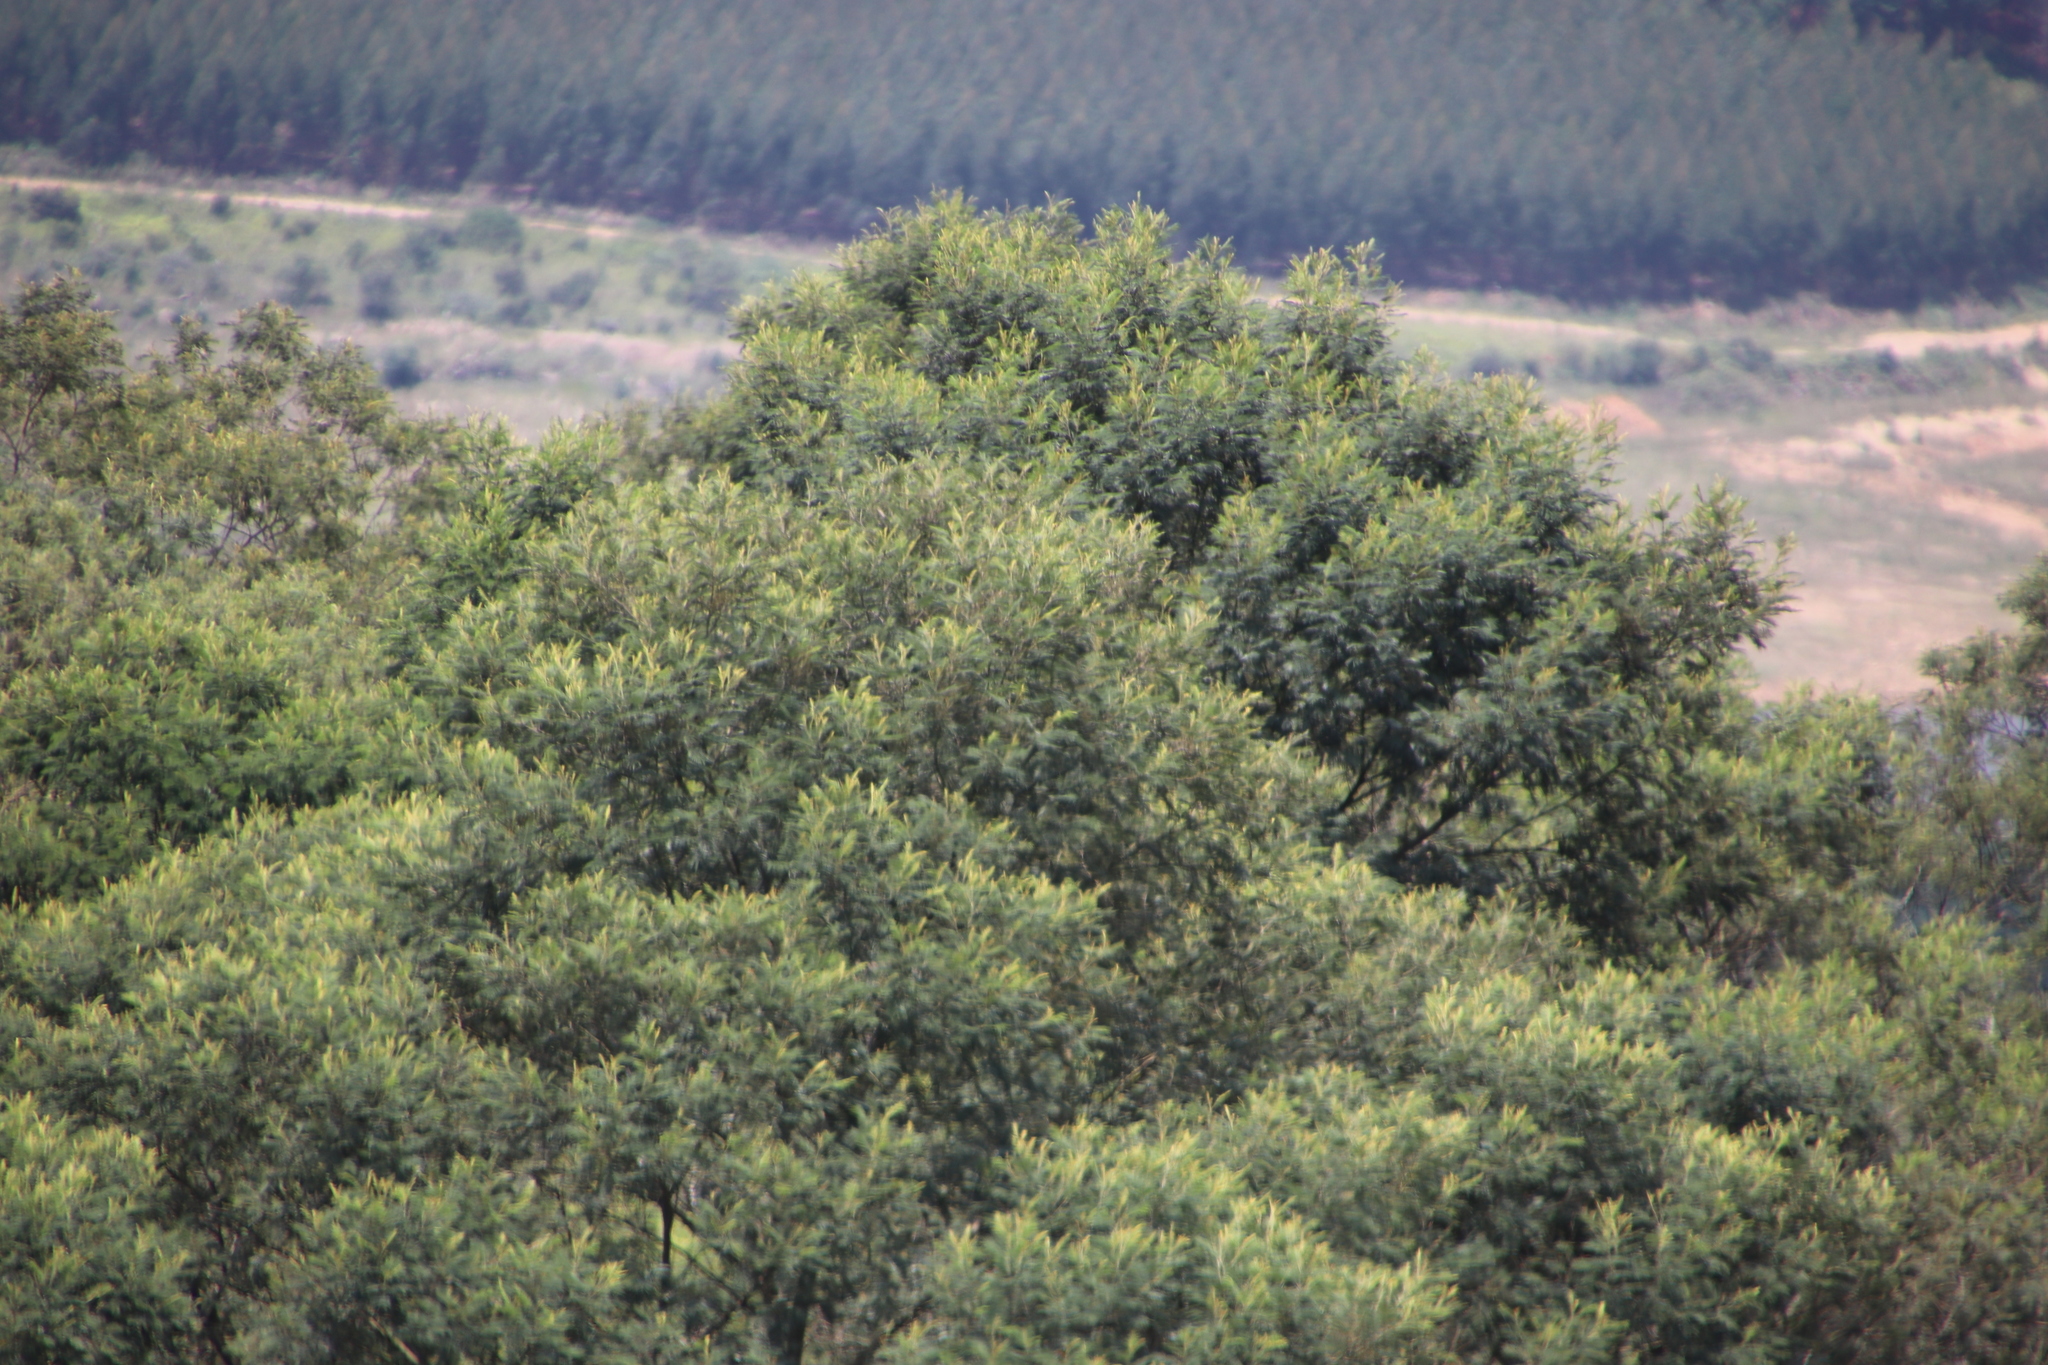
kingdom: Plantae
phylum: Tracheophyta
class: Magnoliopsida
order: Fabales
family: Fabaceae
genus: Acacia
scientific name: Acacia mearnsii
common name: Black wattle
